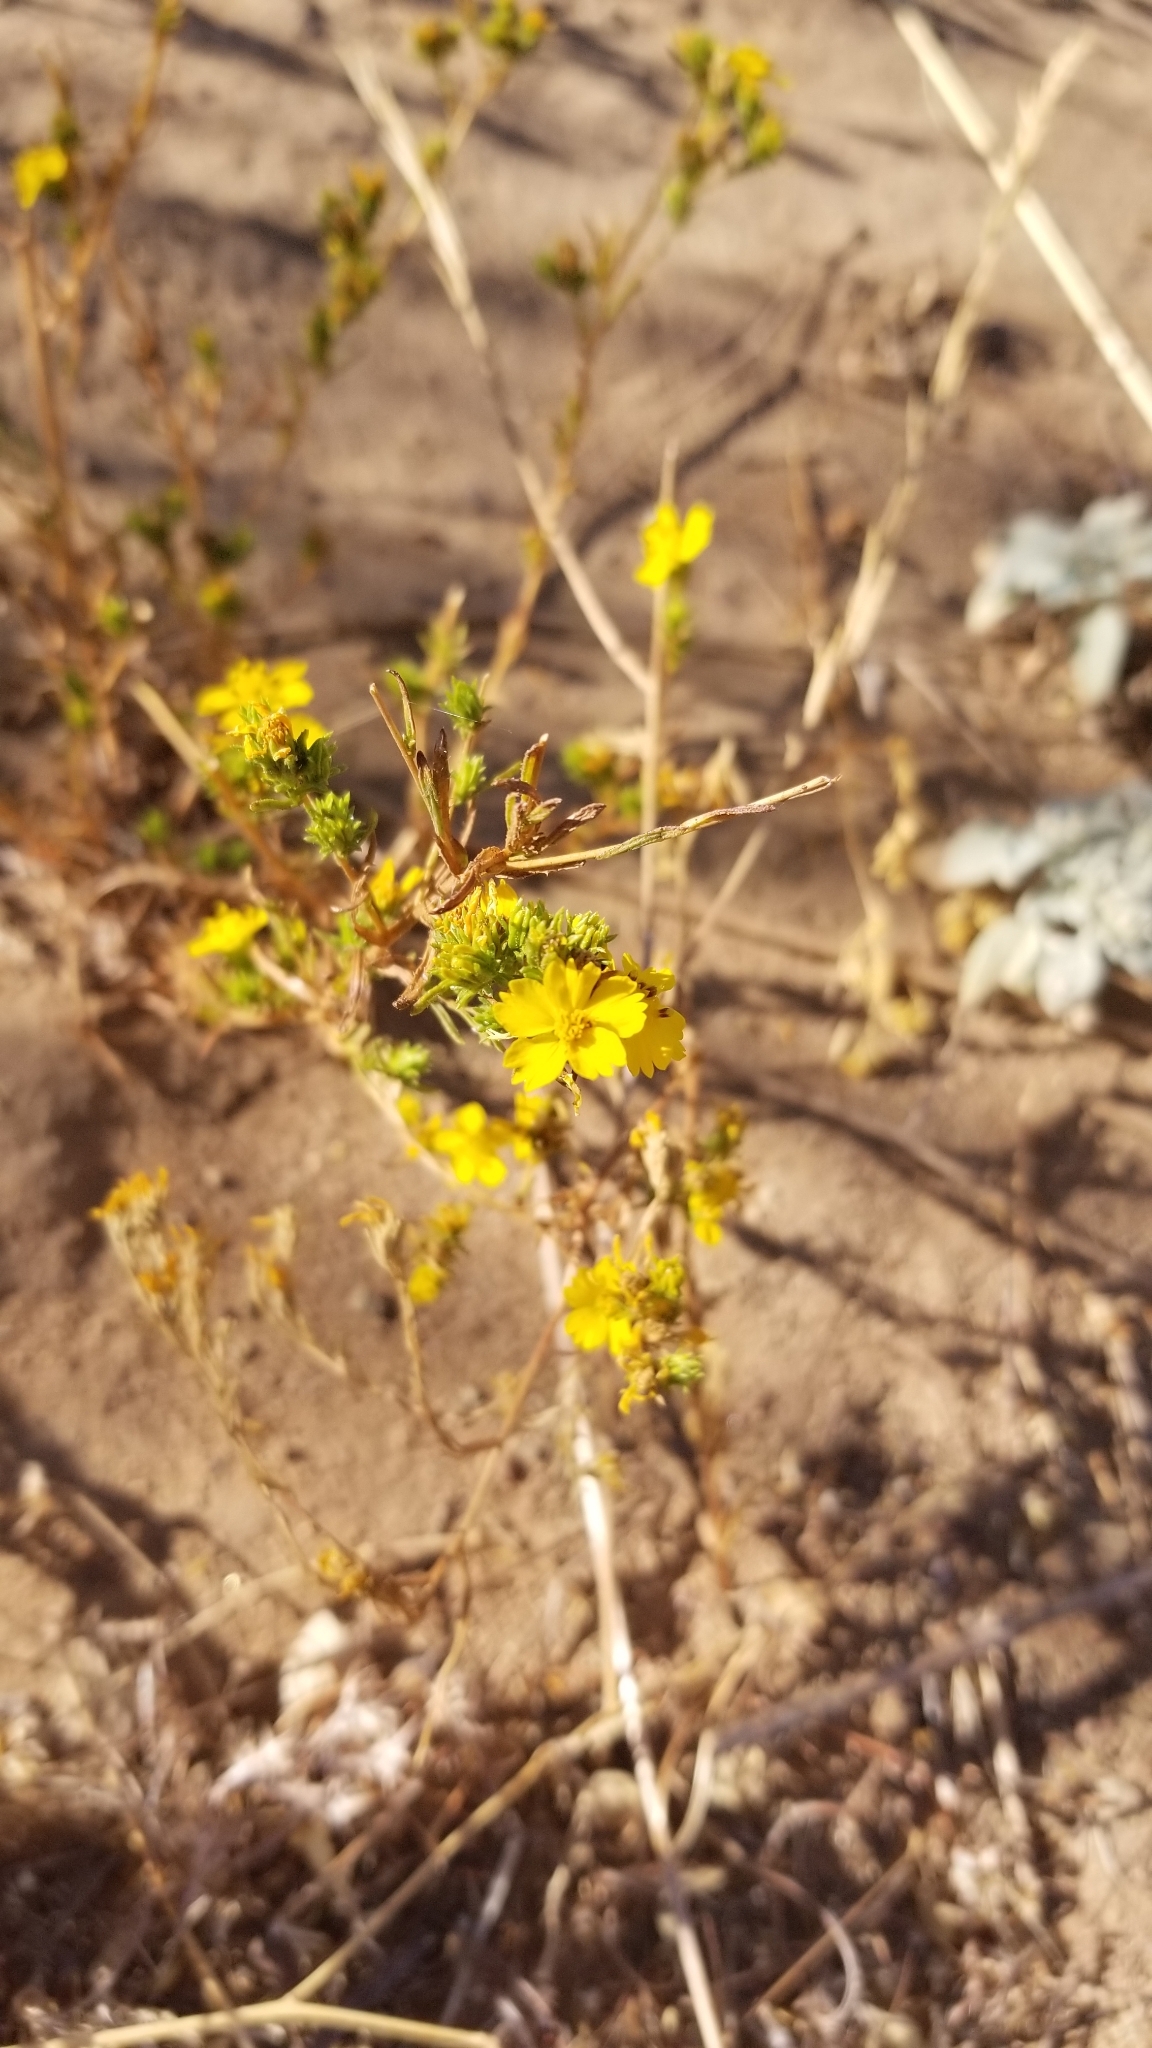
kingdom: Plantae
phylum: Tracheophyta
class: Magnoliopsida
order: Asterales
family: Asteraceae
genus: Deinandra
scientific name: Deinandra fasciculata
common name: Clustered tarweed
